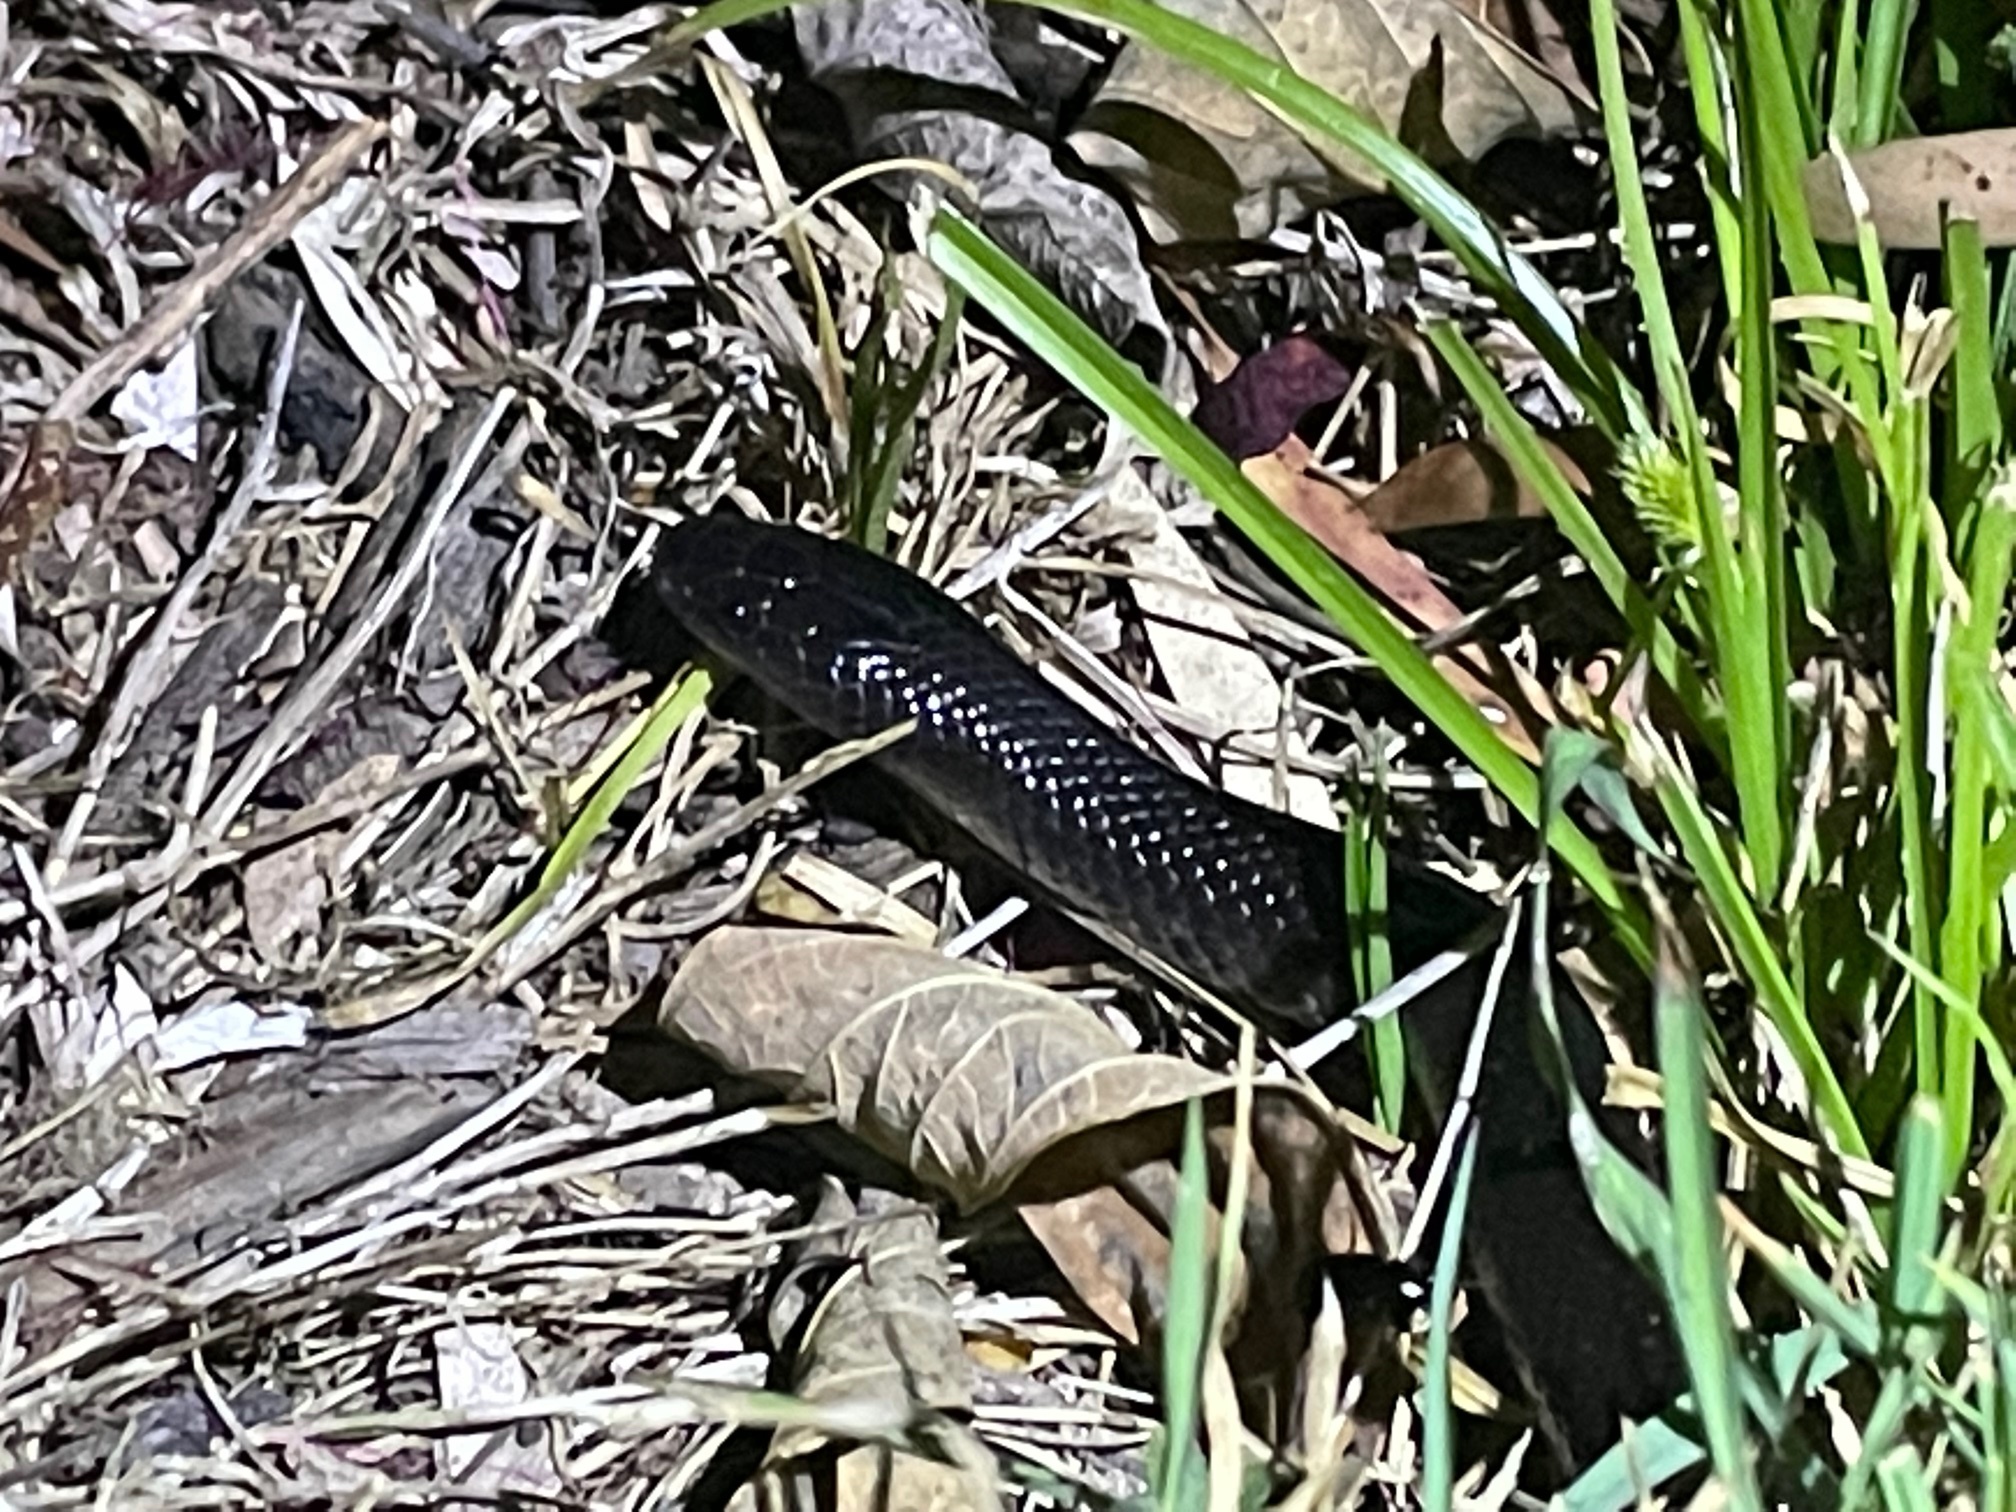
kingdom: Animalia
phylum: Chordata
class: Squamata
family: Elapidae
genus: Cryptophis
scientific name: Cryptophis nigrescens
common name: Eastern small-eyed snake
